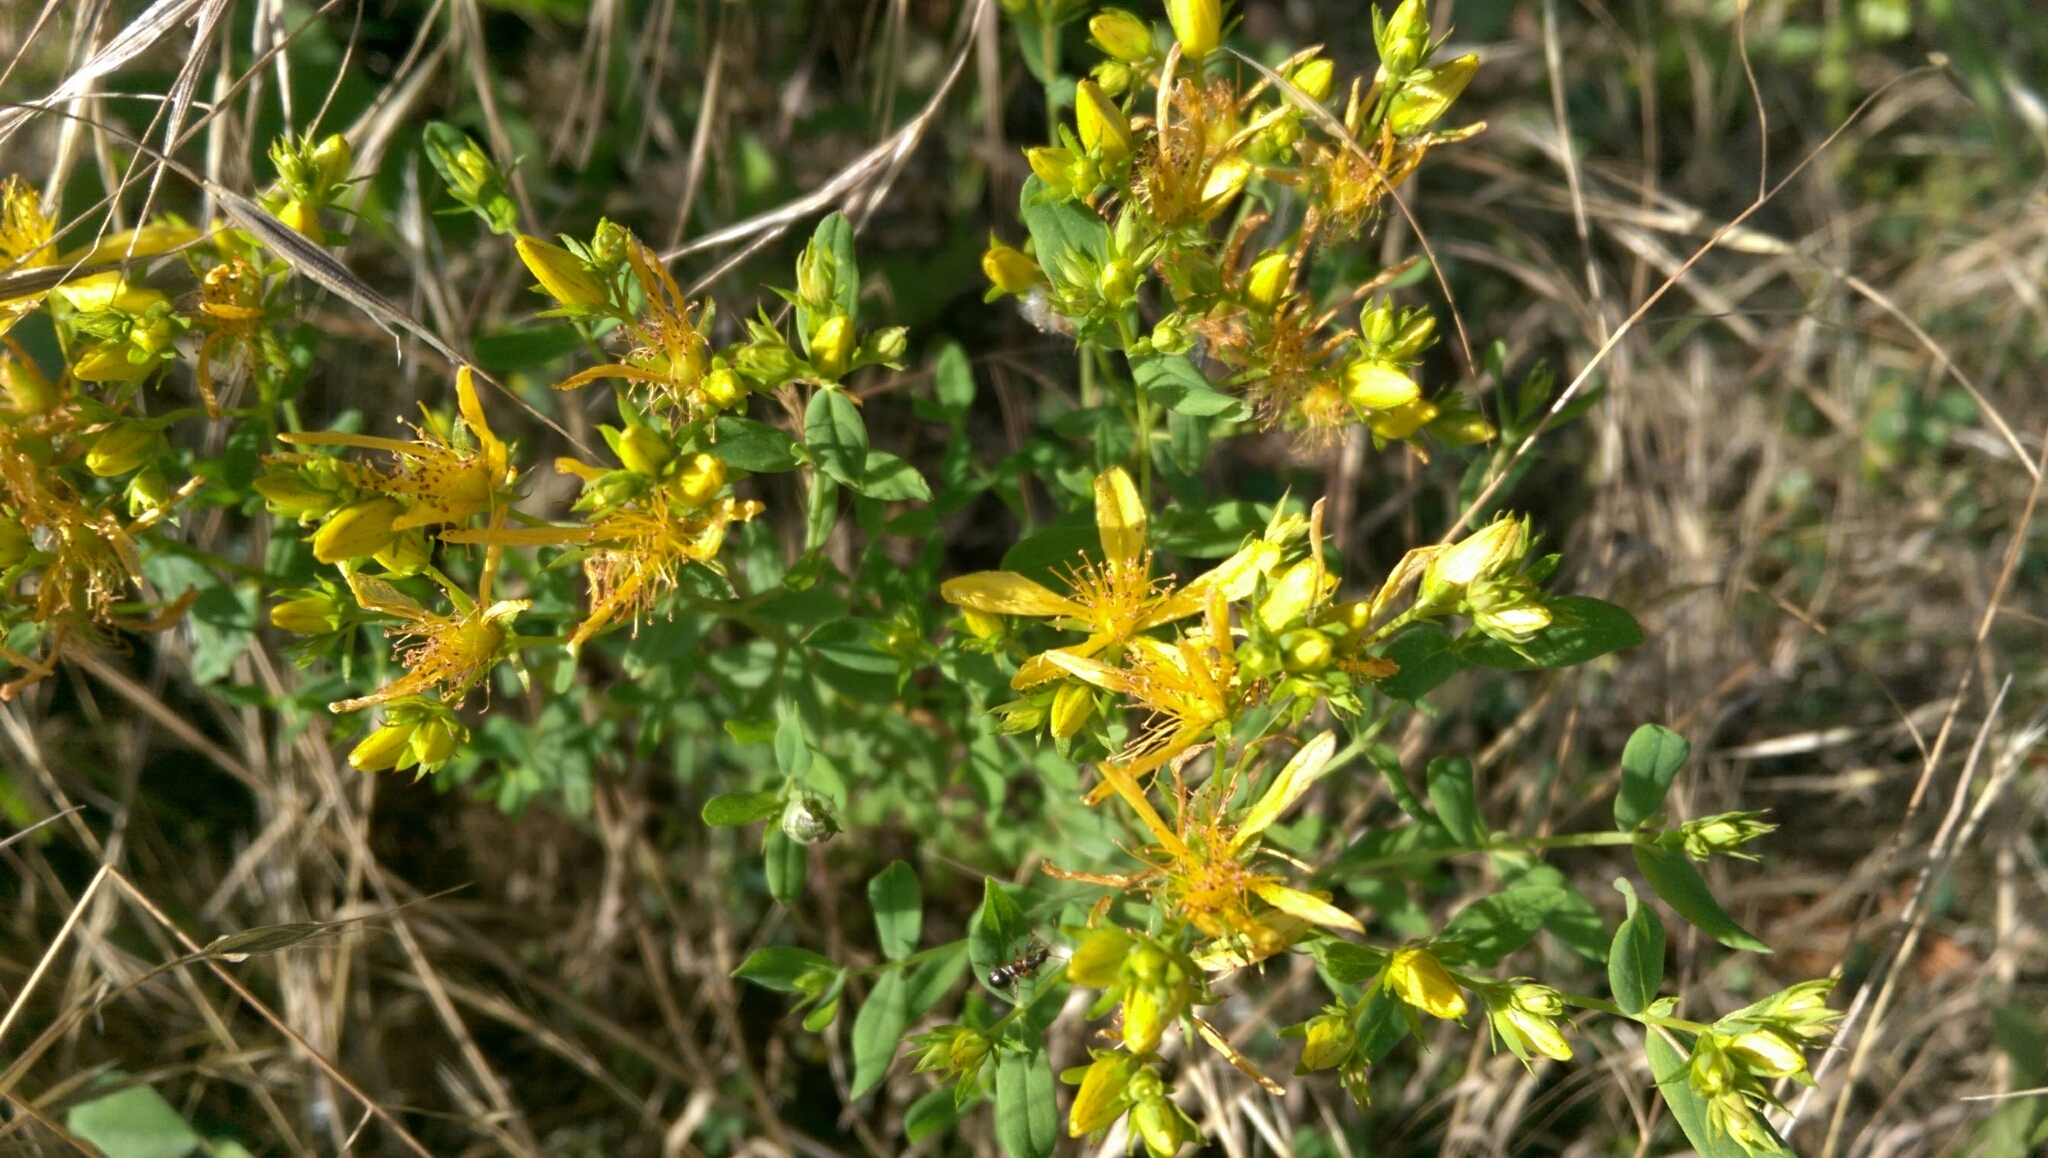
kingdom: Plantae
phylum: Tracheophyta
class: Magnoliopsida
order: Malpighiales
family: Hypericaceae
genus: Hypericum
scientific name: Hypericum perforatum
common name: Common st. johnswort
